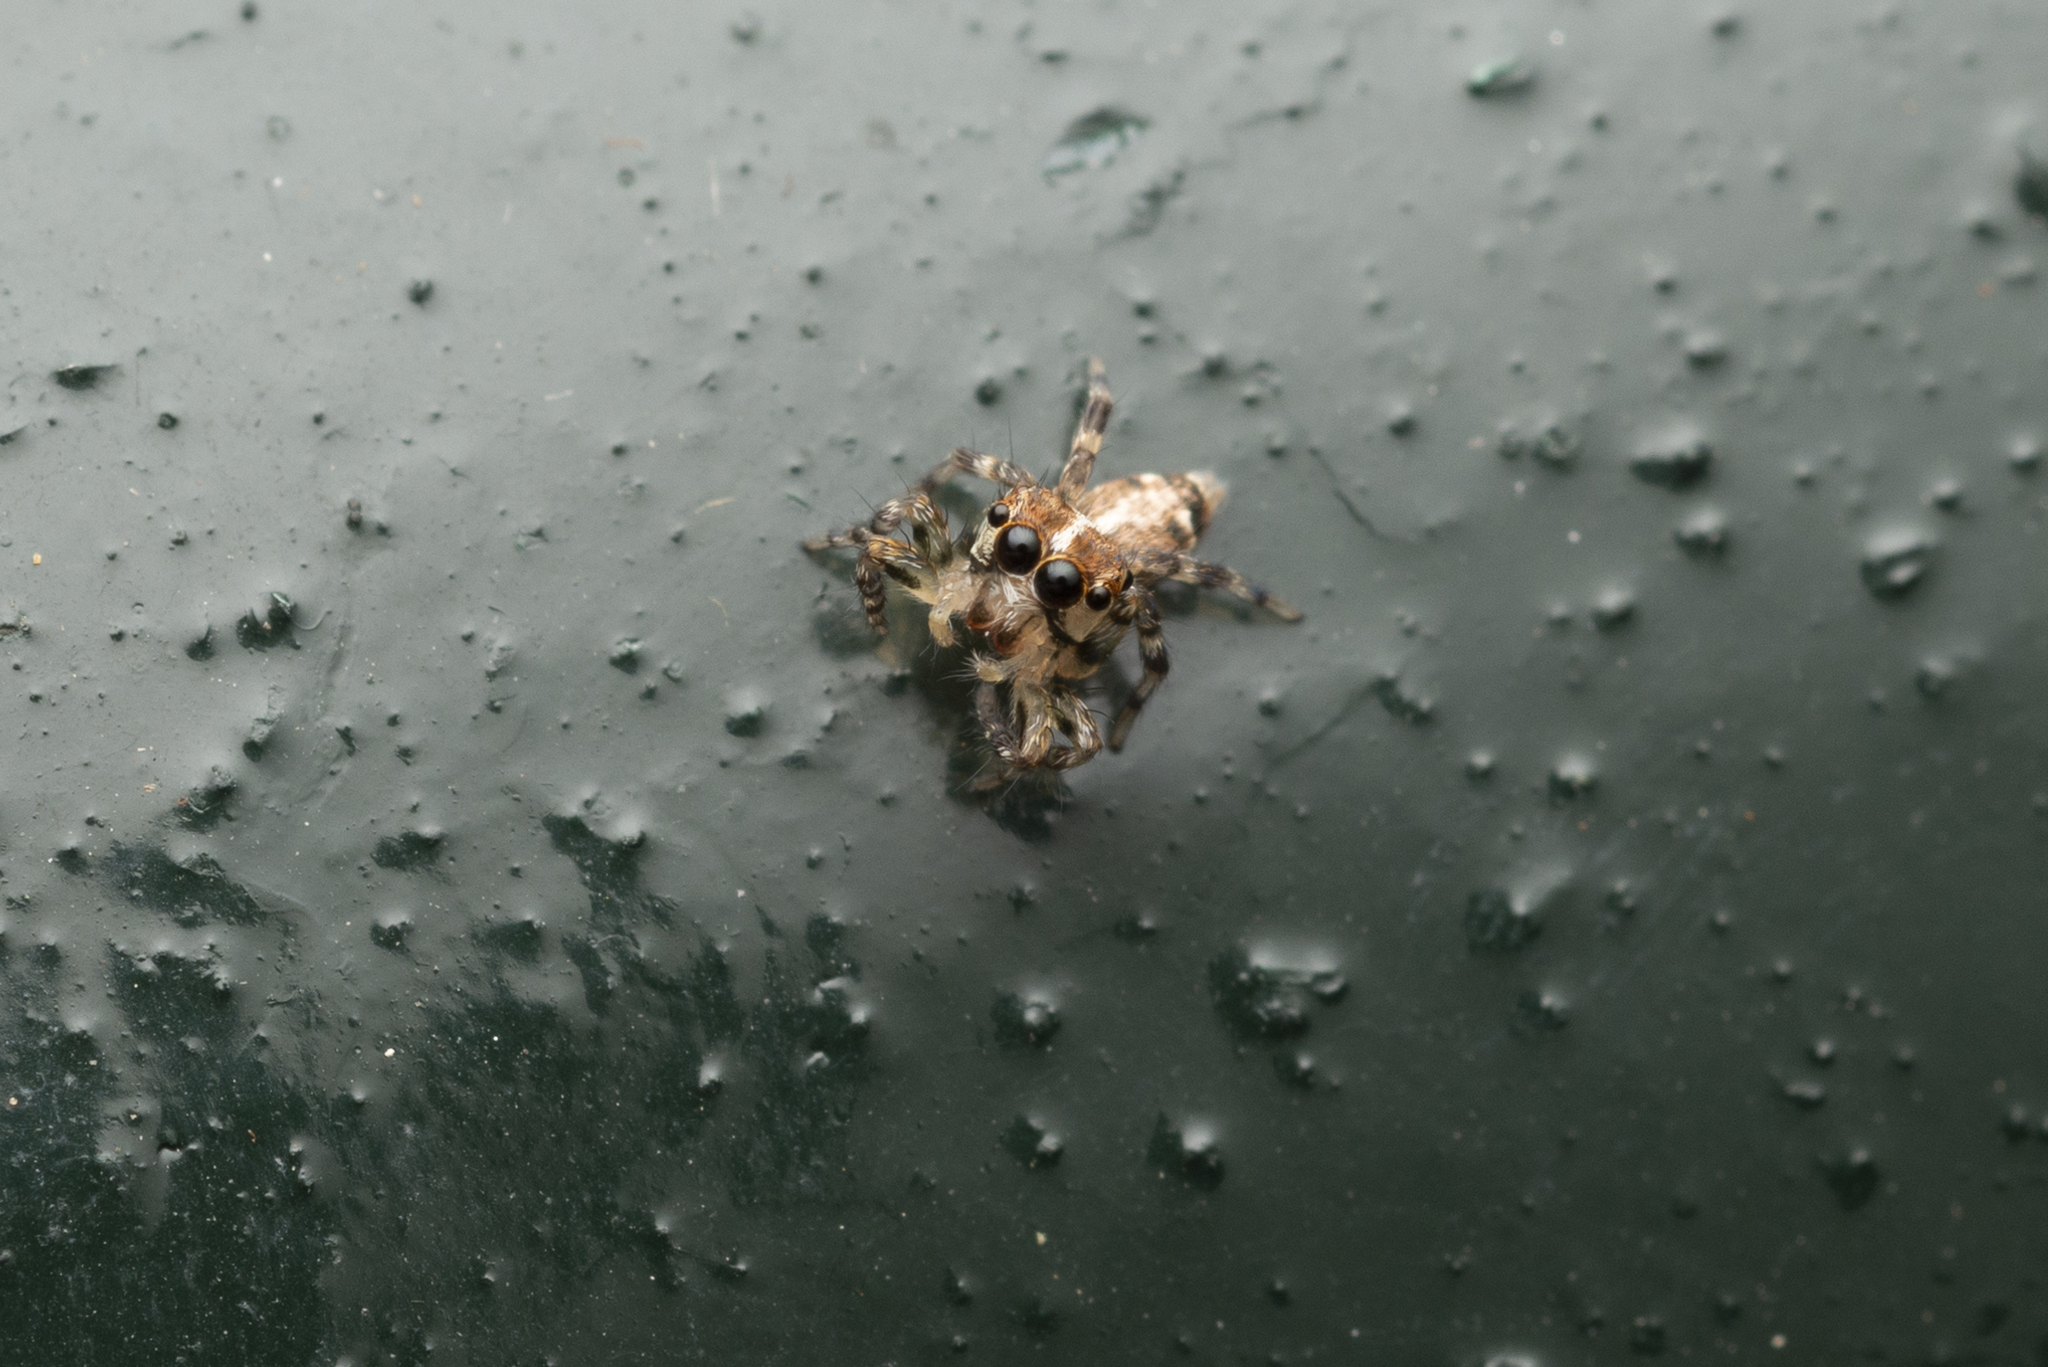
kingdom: Animalia
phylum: Arthropoda
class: Arachnida
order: Araneae
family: Salticidae
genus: Thyene
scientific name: Thyene orientalis
